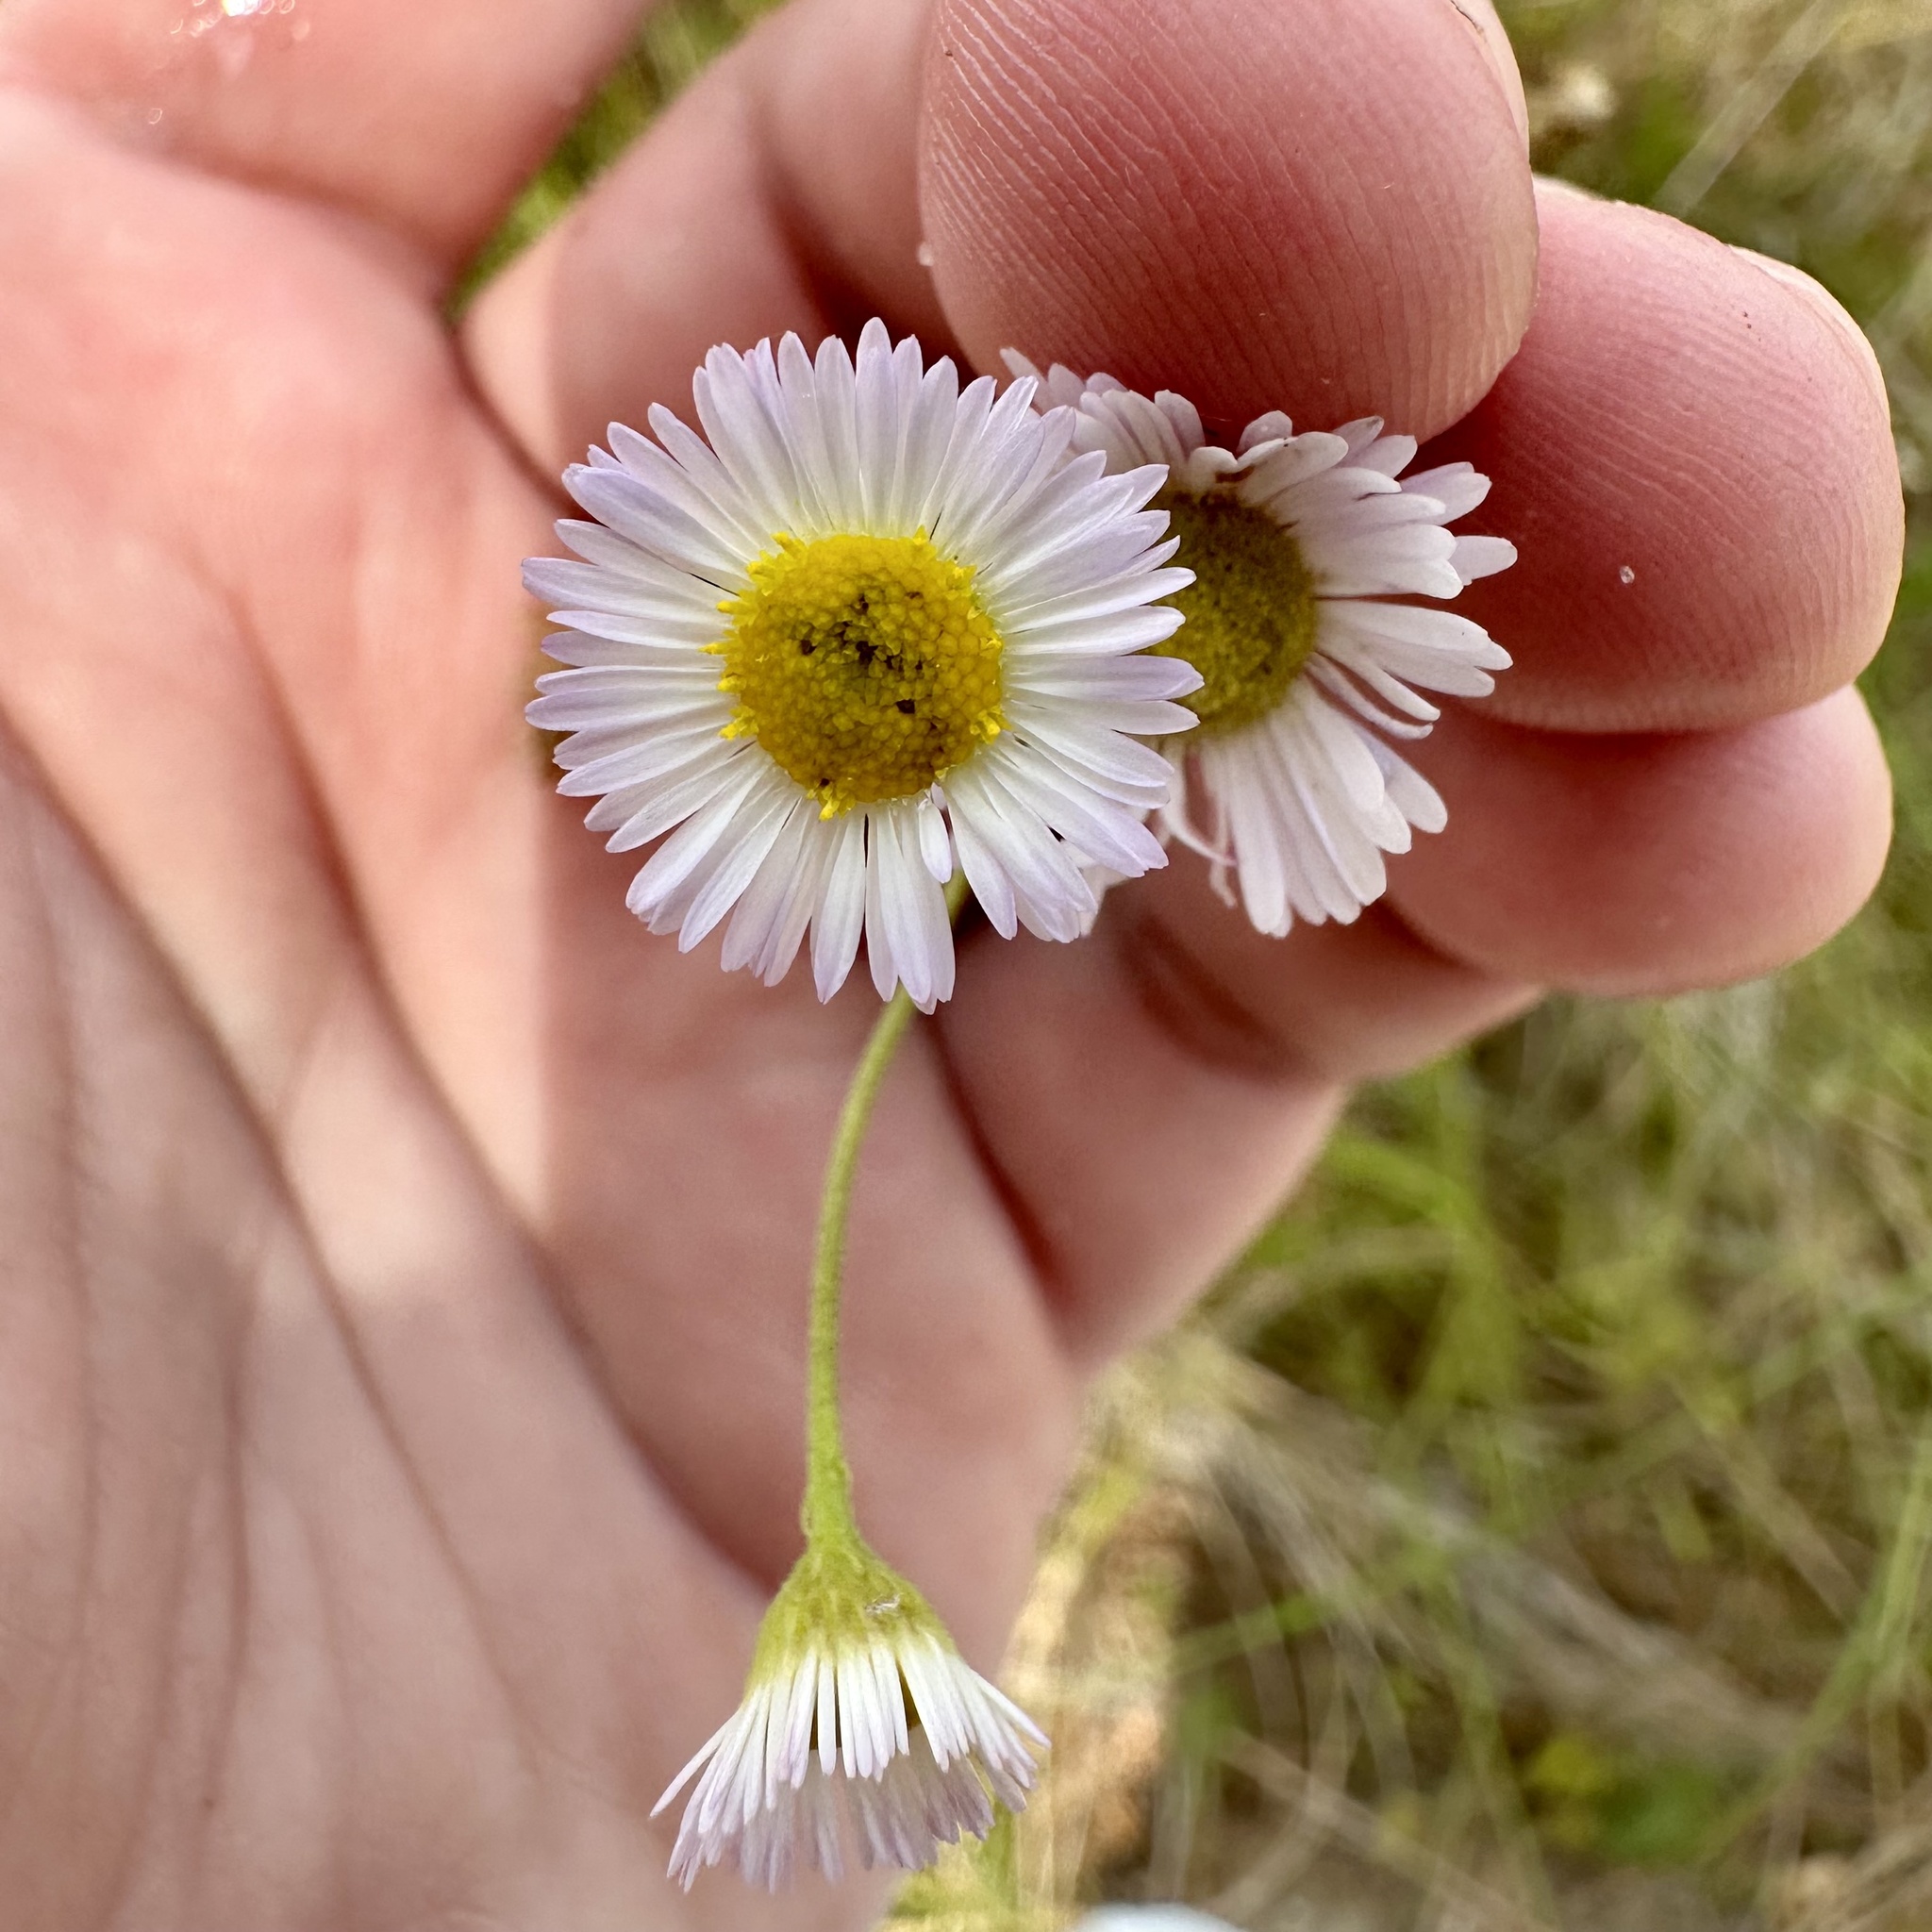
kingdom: Plantae
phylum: Tracheophyta
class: Magnoliopsida
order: Asterales
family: Asteraceae
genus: Erigeron
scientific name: Erigeron strigosus
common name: Common eastern fleabane
